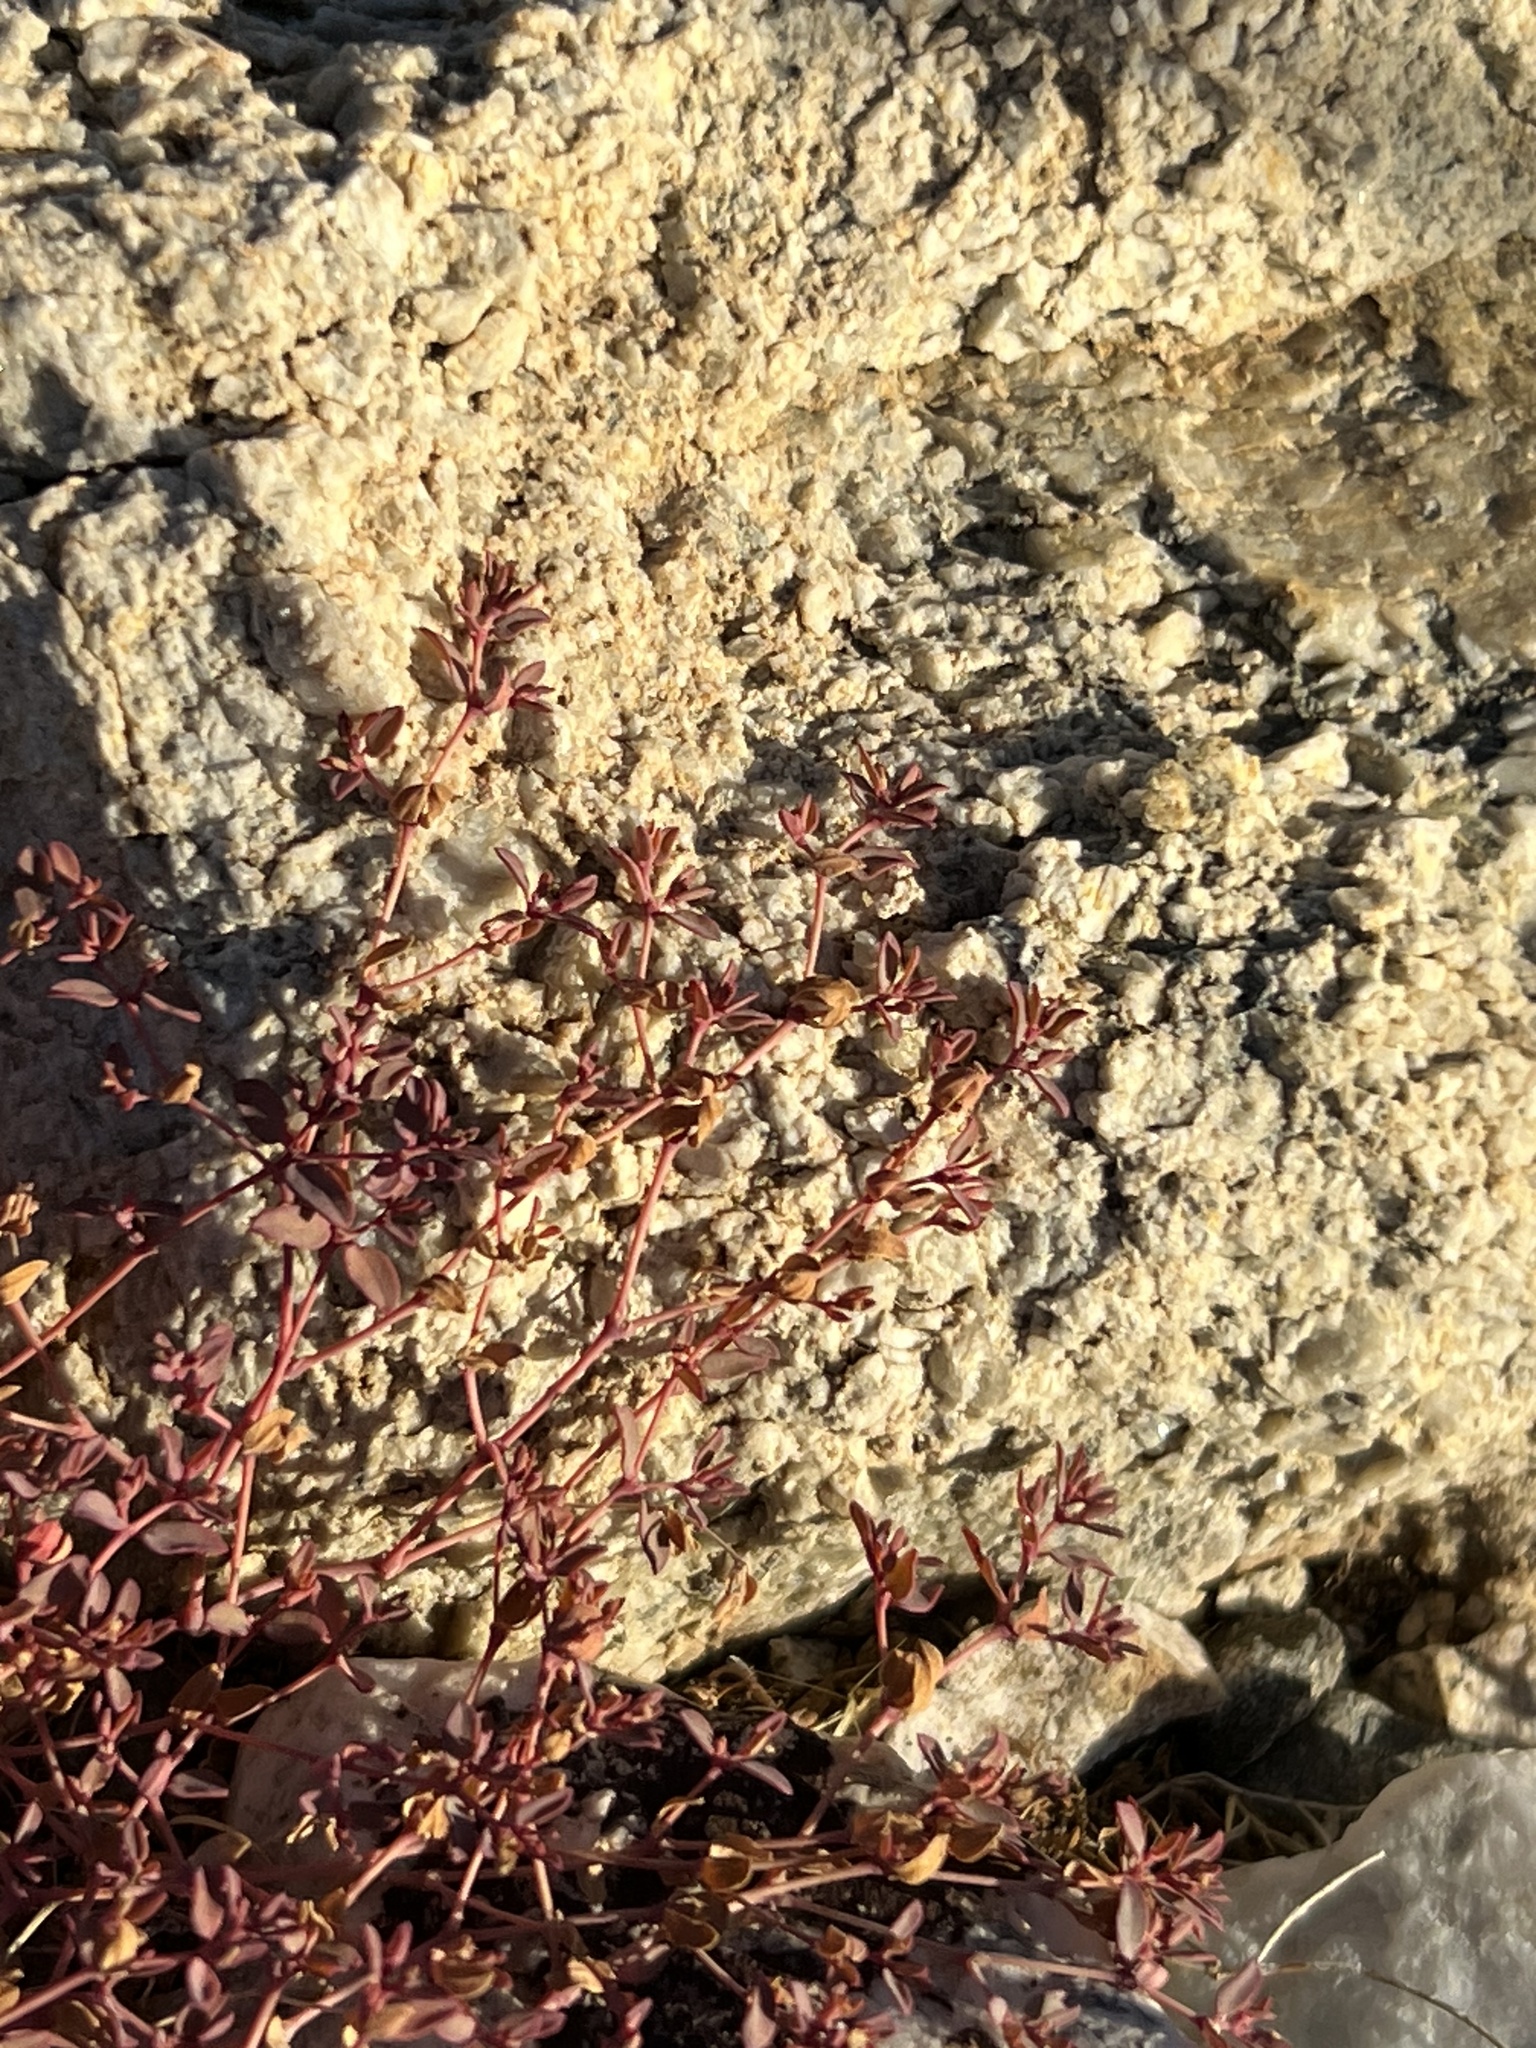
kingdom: Plantae
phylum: Tracheophyta
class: Magnoliopsida
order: Malpighiales
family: Euphorbiaceae
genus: Euphorbia
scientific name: Euphorbia polycarpa
